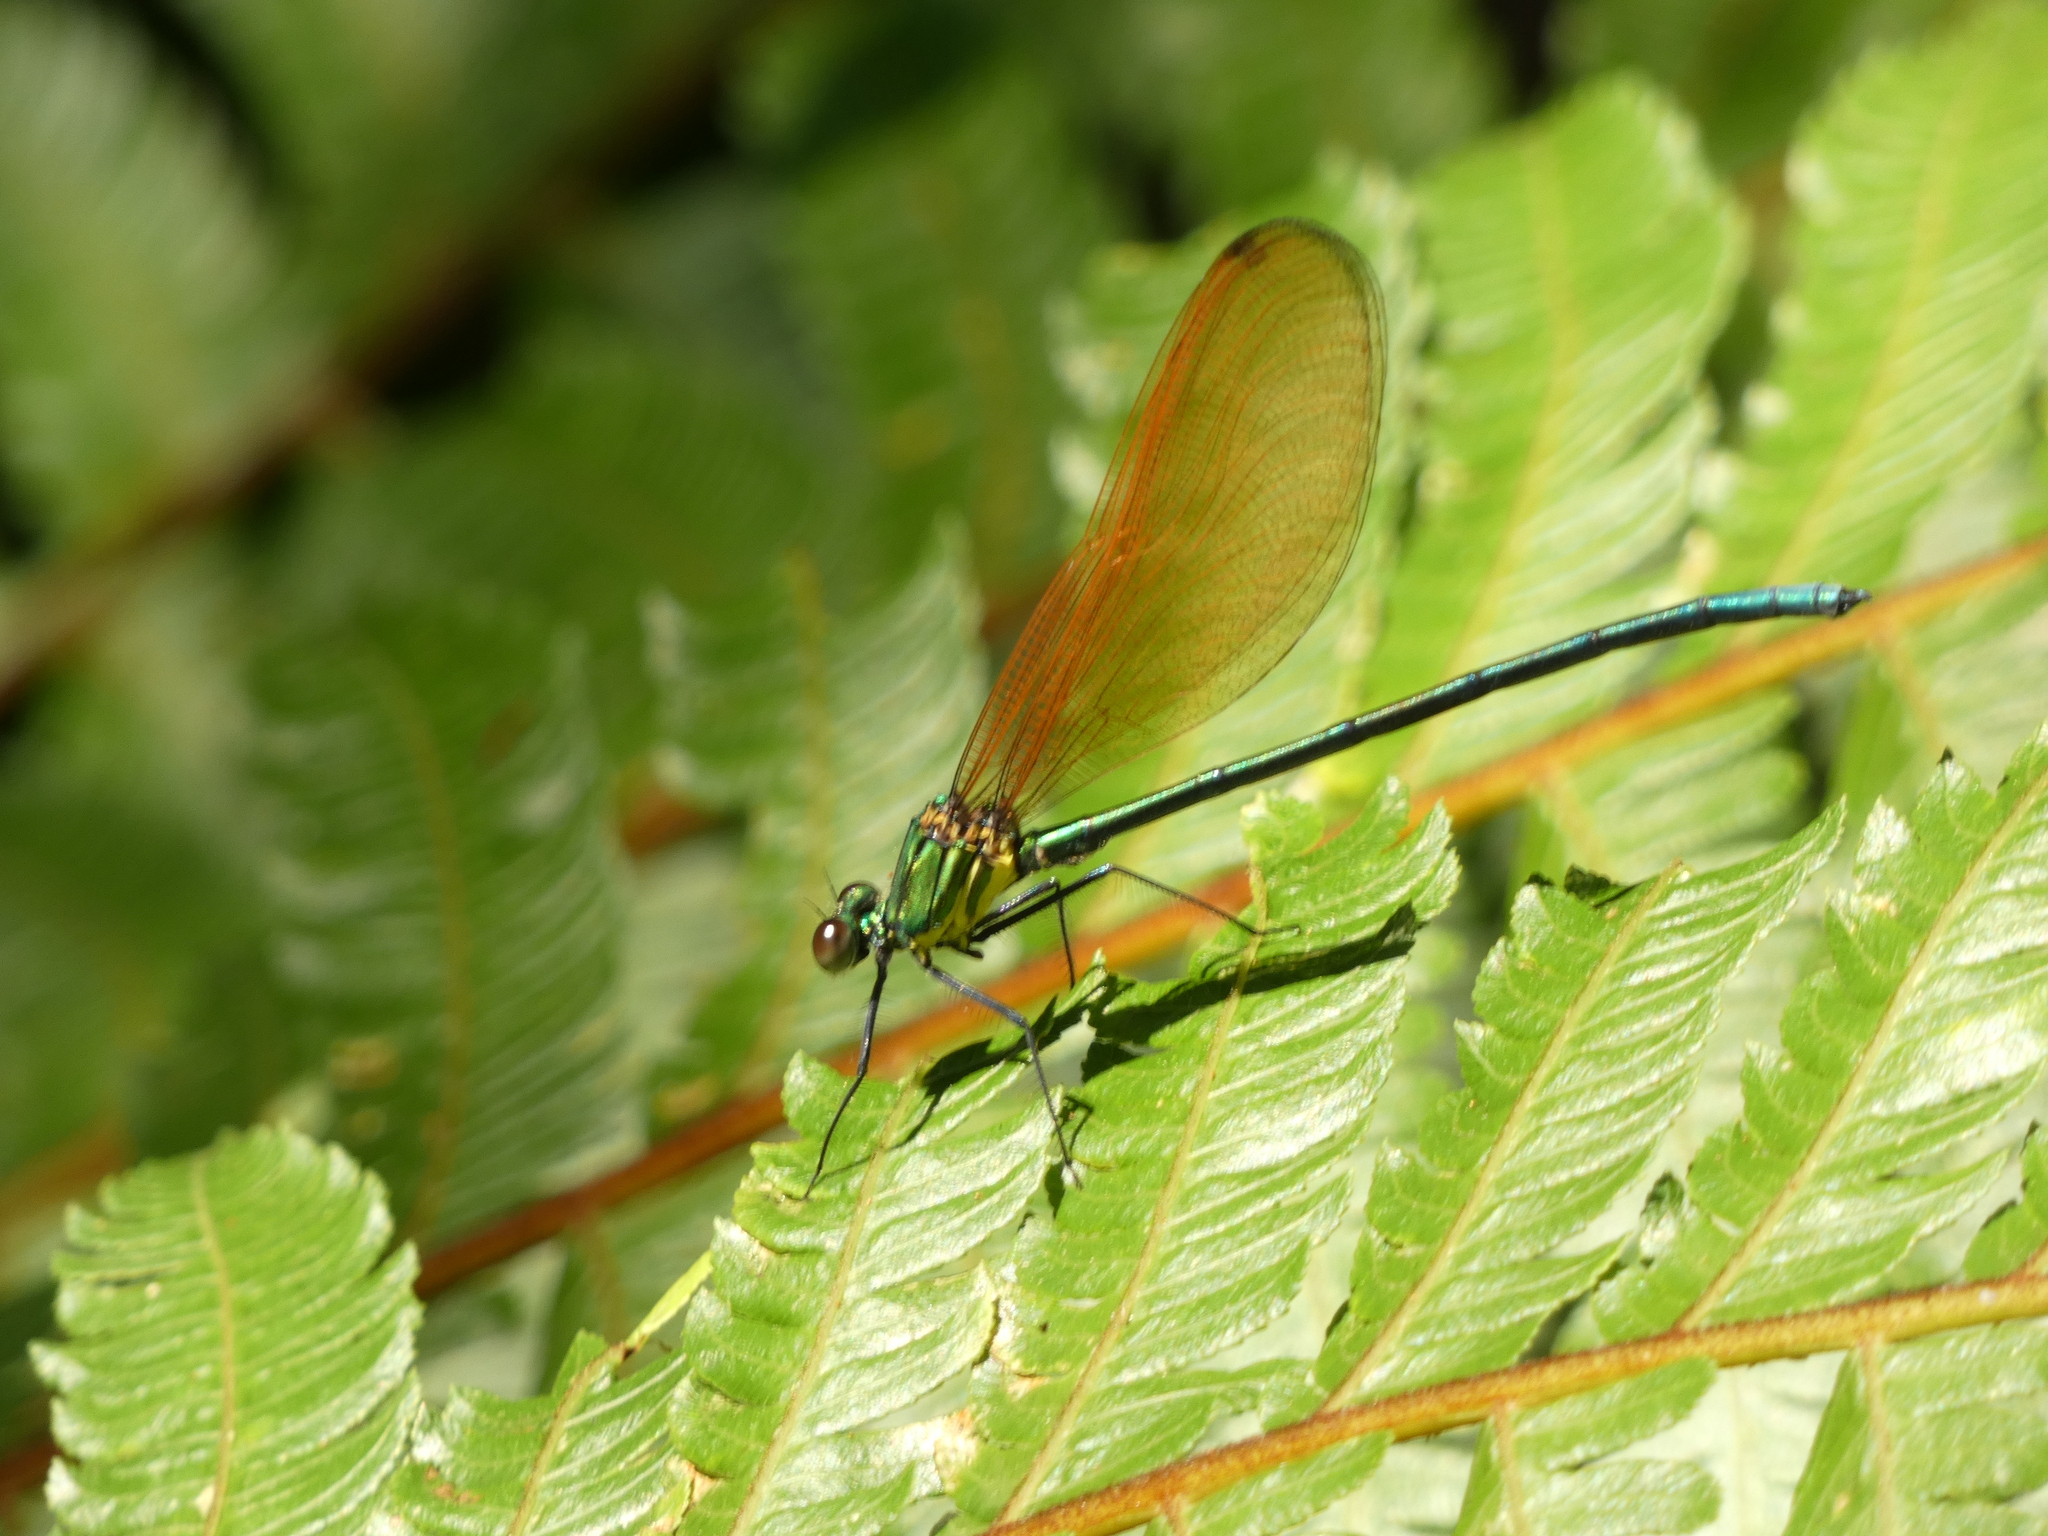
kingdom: Animalia
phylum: Arthropoda
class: Insecta
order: Odonata
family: Calopterygidae
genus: Mnais
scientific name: Mnais andersoni
